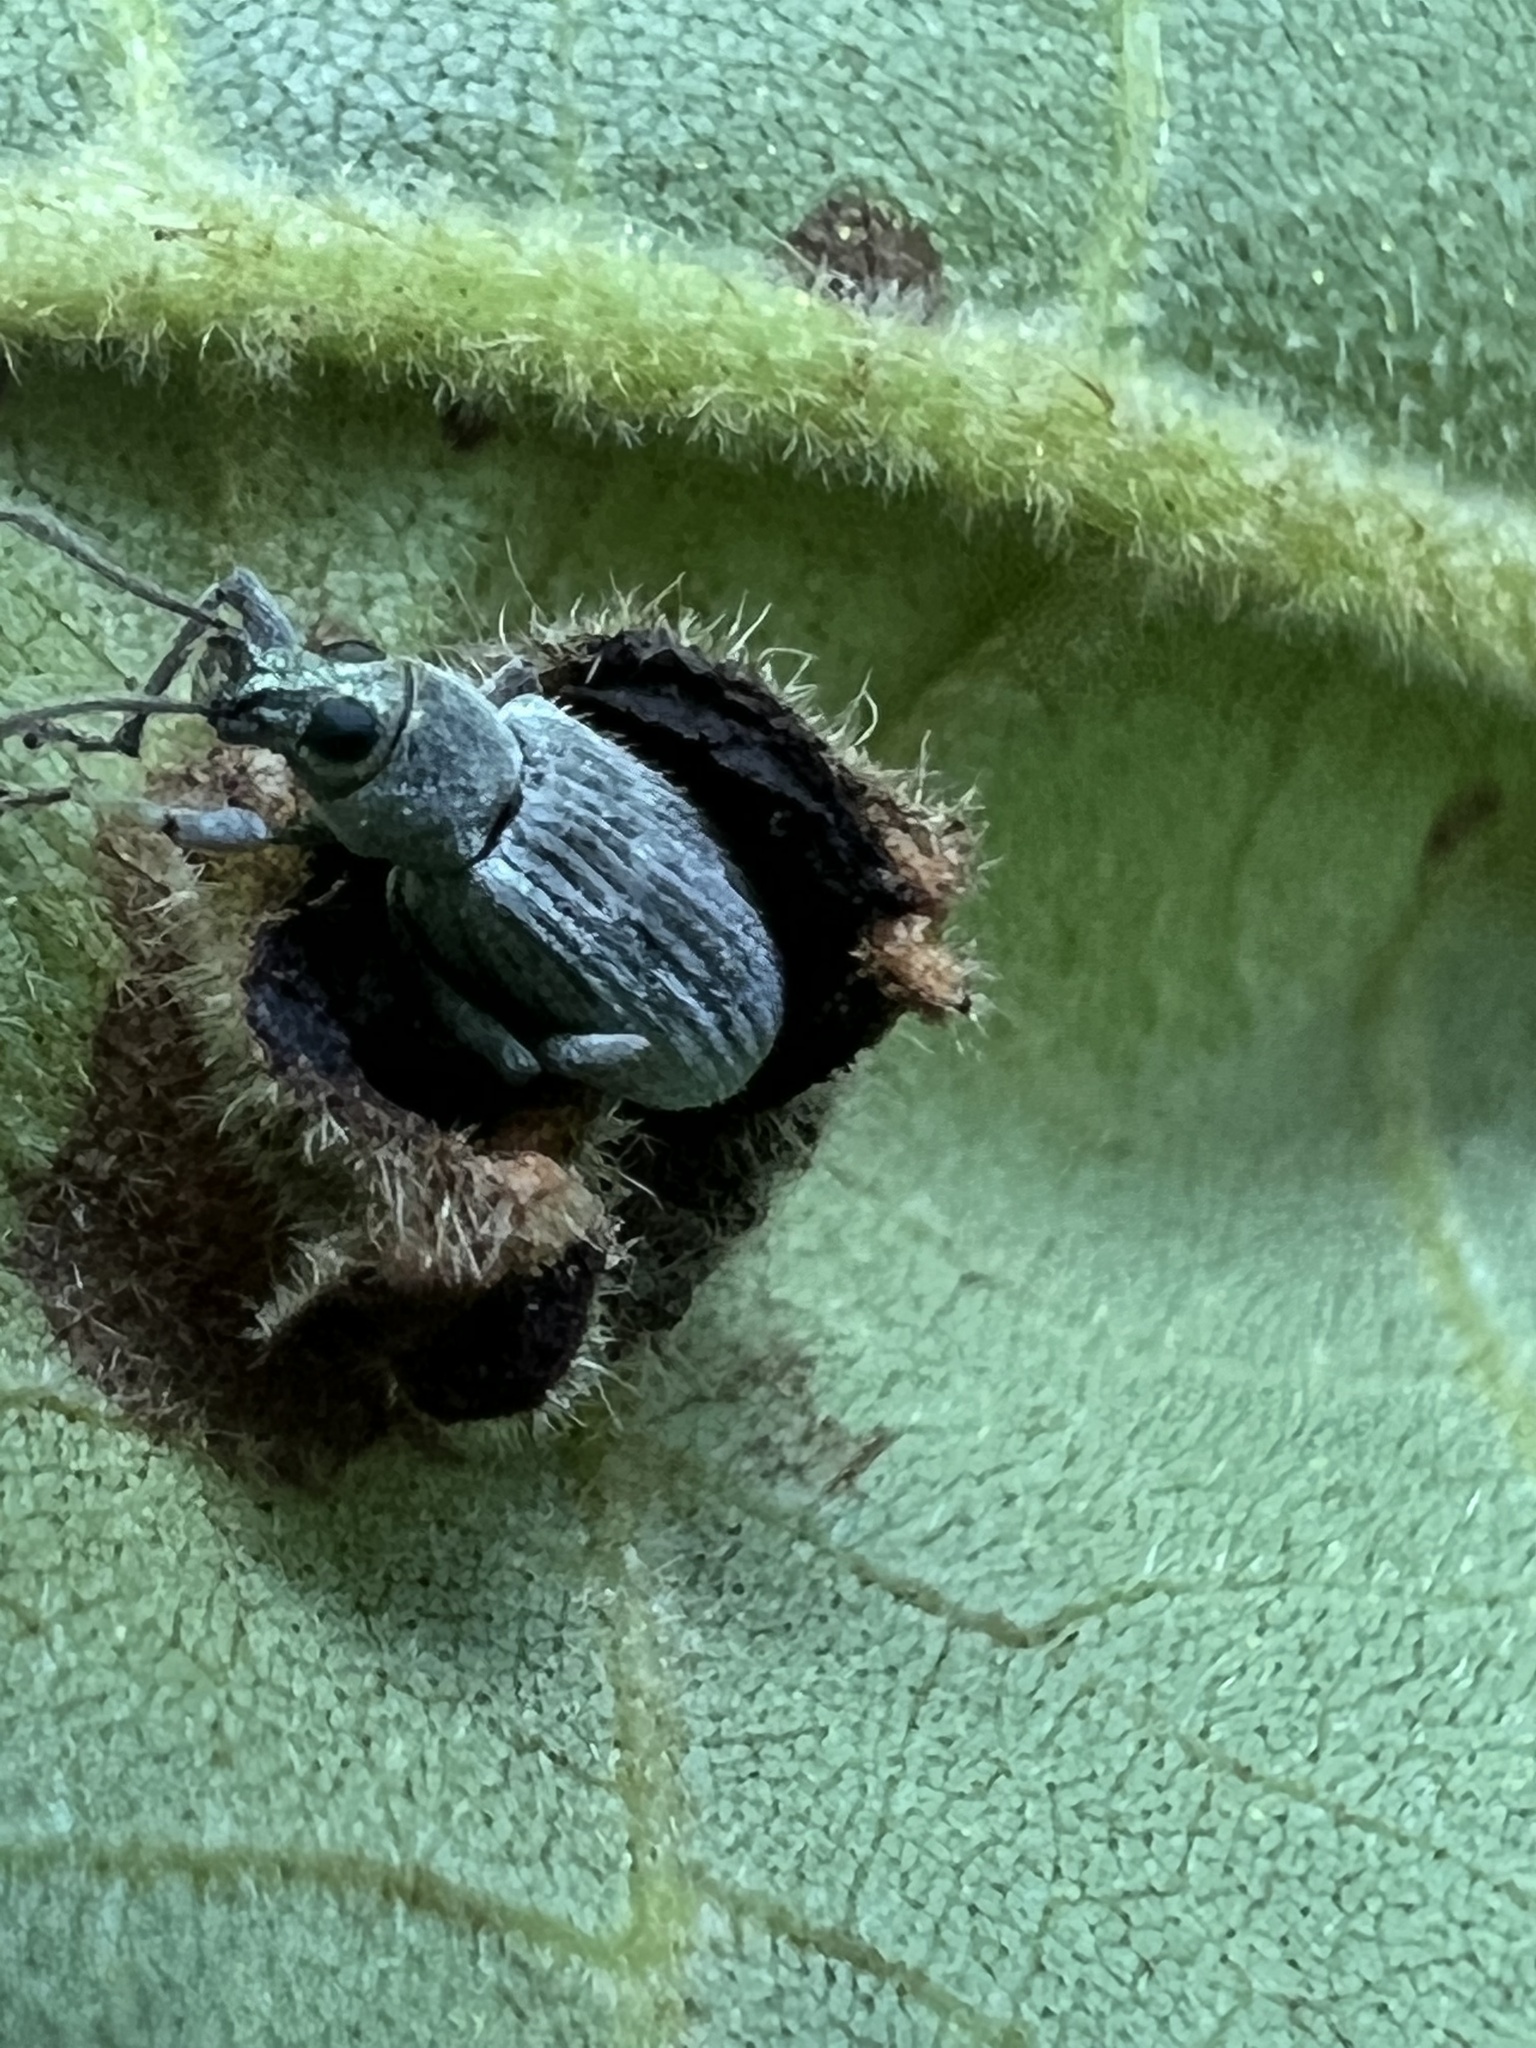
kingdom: Animalia
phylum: Arthropoda
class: Insecta
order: Coleoptera
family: Curculionidae
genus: Cyrtepistomus
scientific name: Cyrtepistomus castaneus
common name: Weevil
